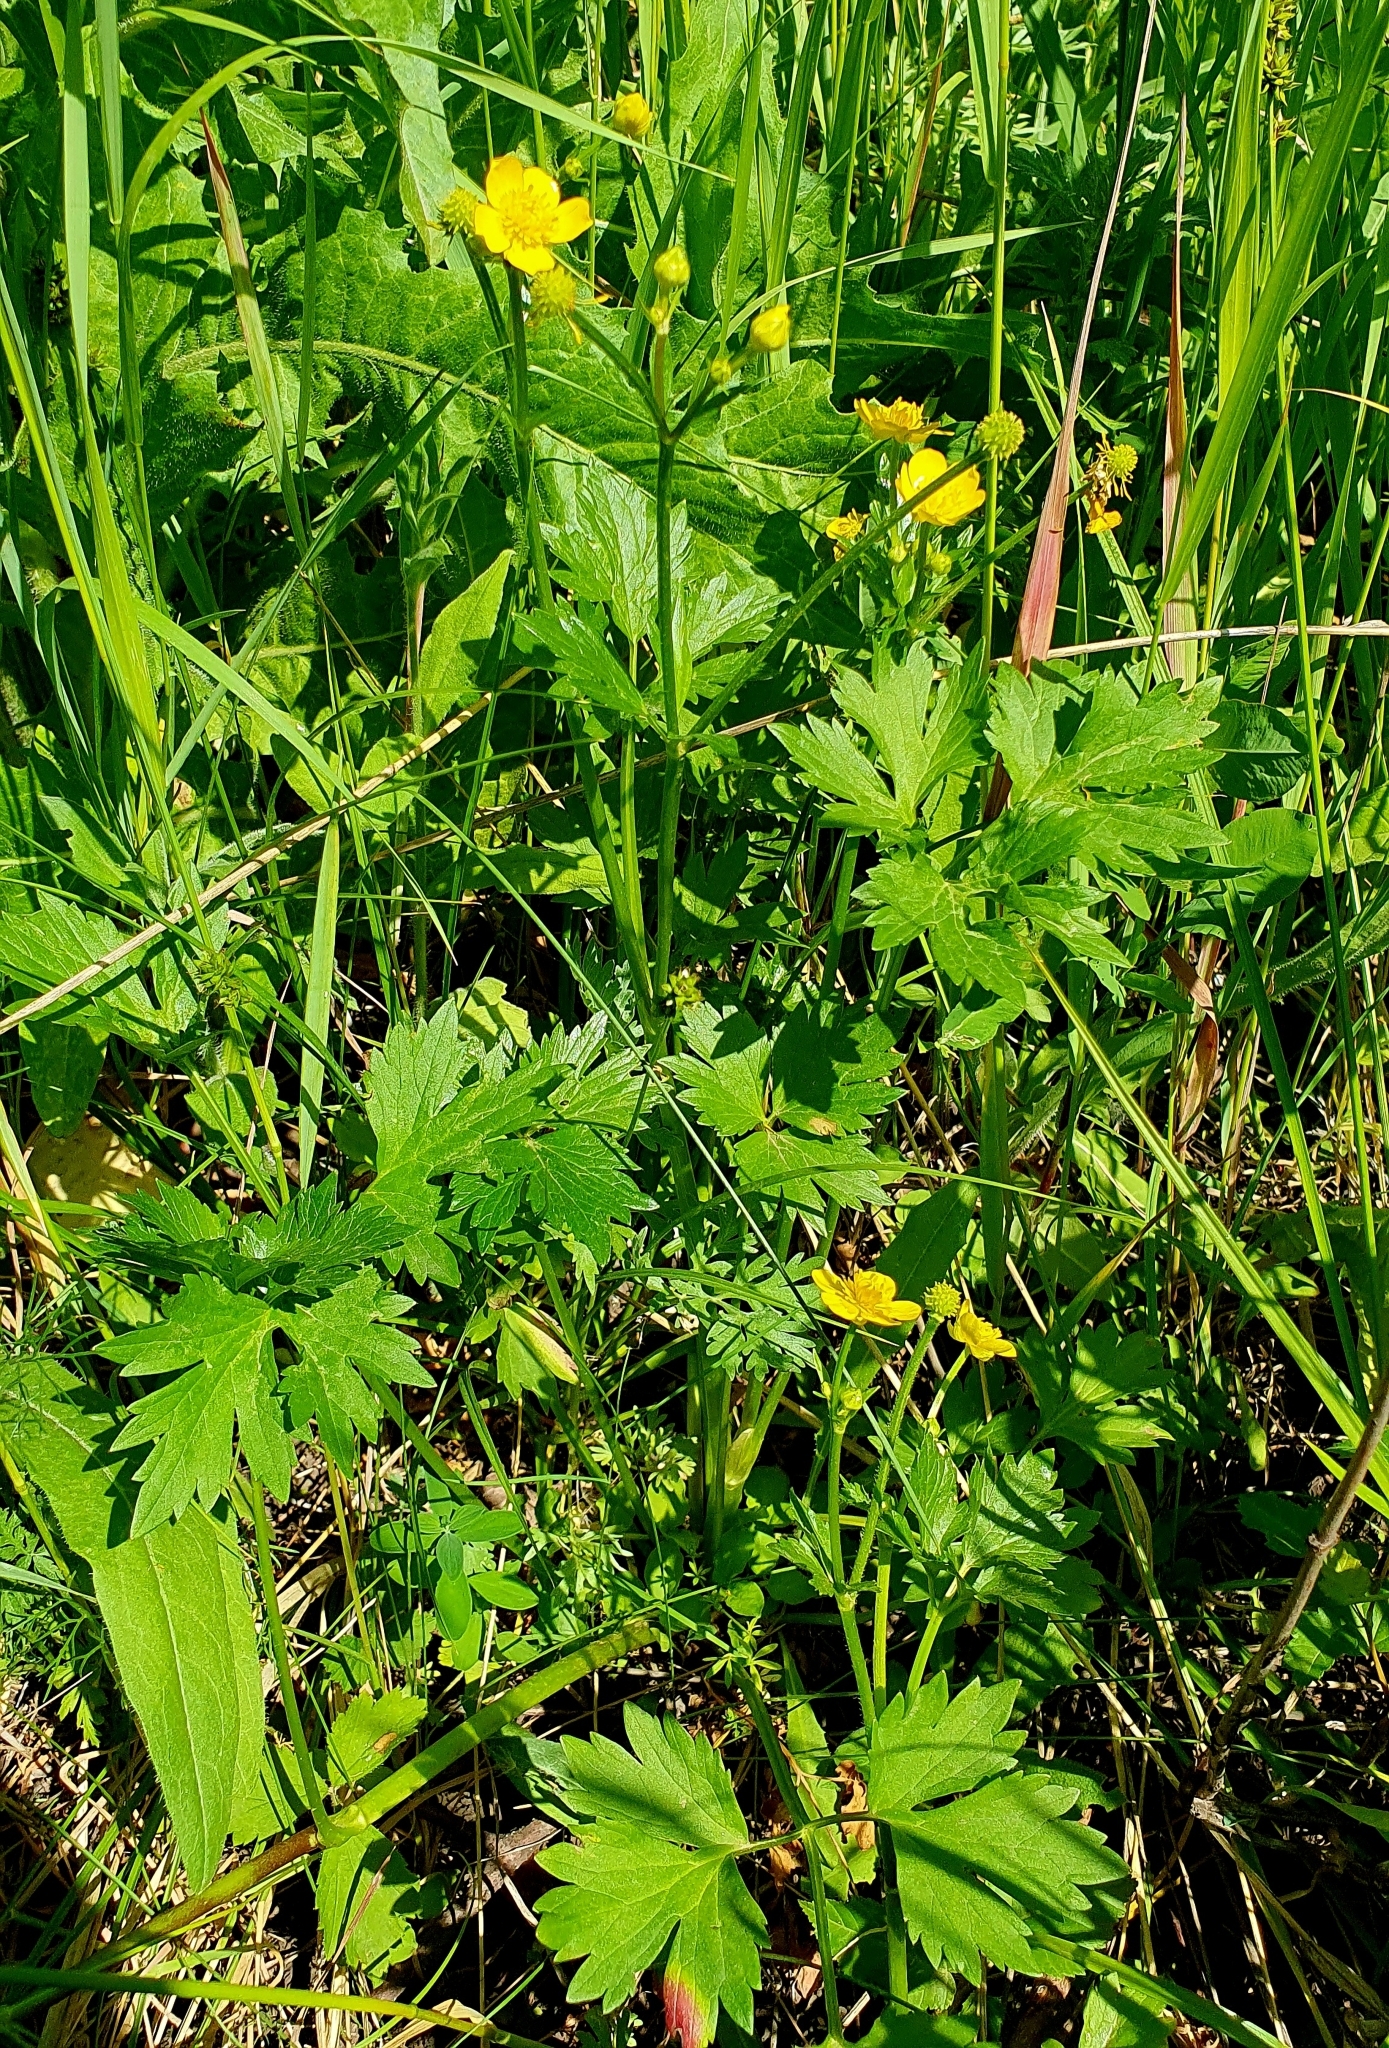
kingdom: Plantae
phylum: Tracheophyta
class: Magnoliopsida
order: Ranunculales
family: Ranunculaceae
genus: Ranunculus
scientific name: Ranunculus repens
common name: Creeping buttercup
